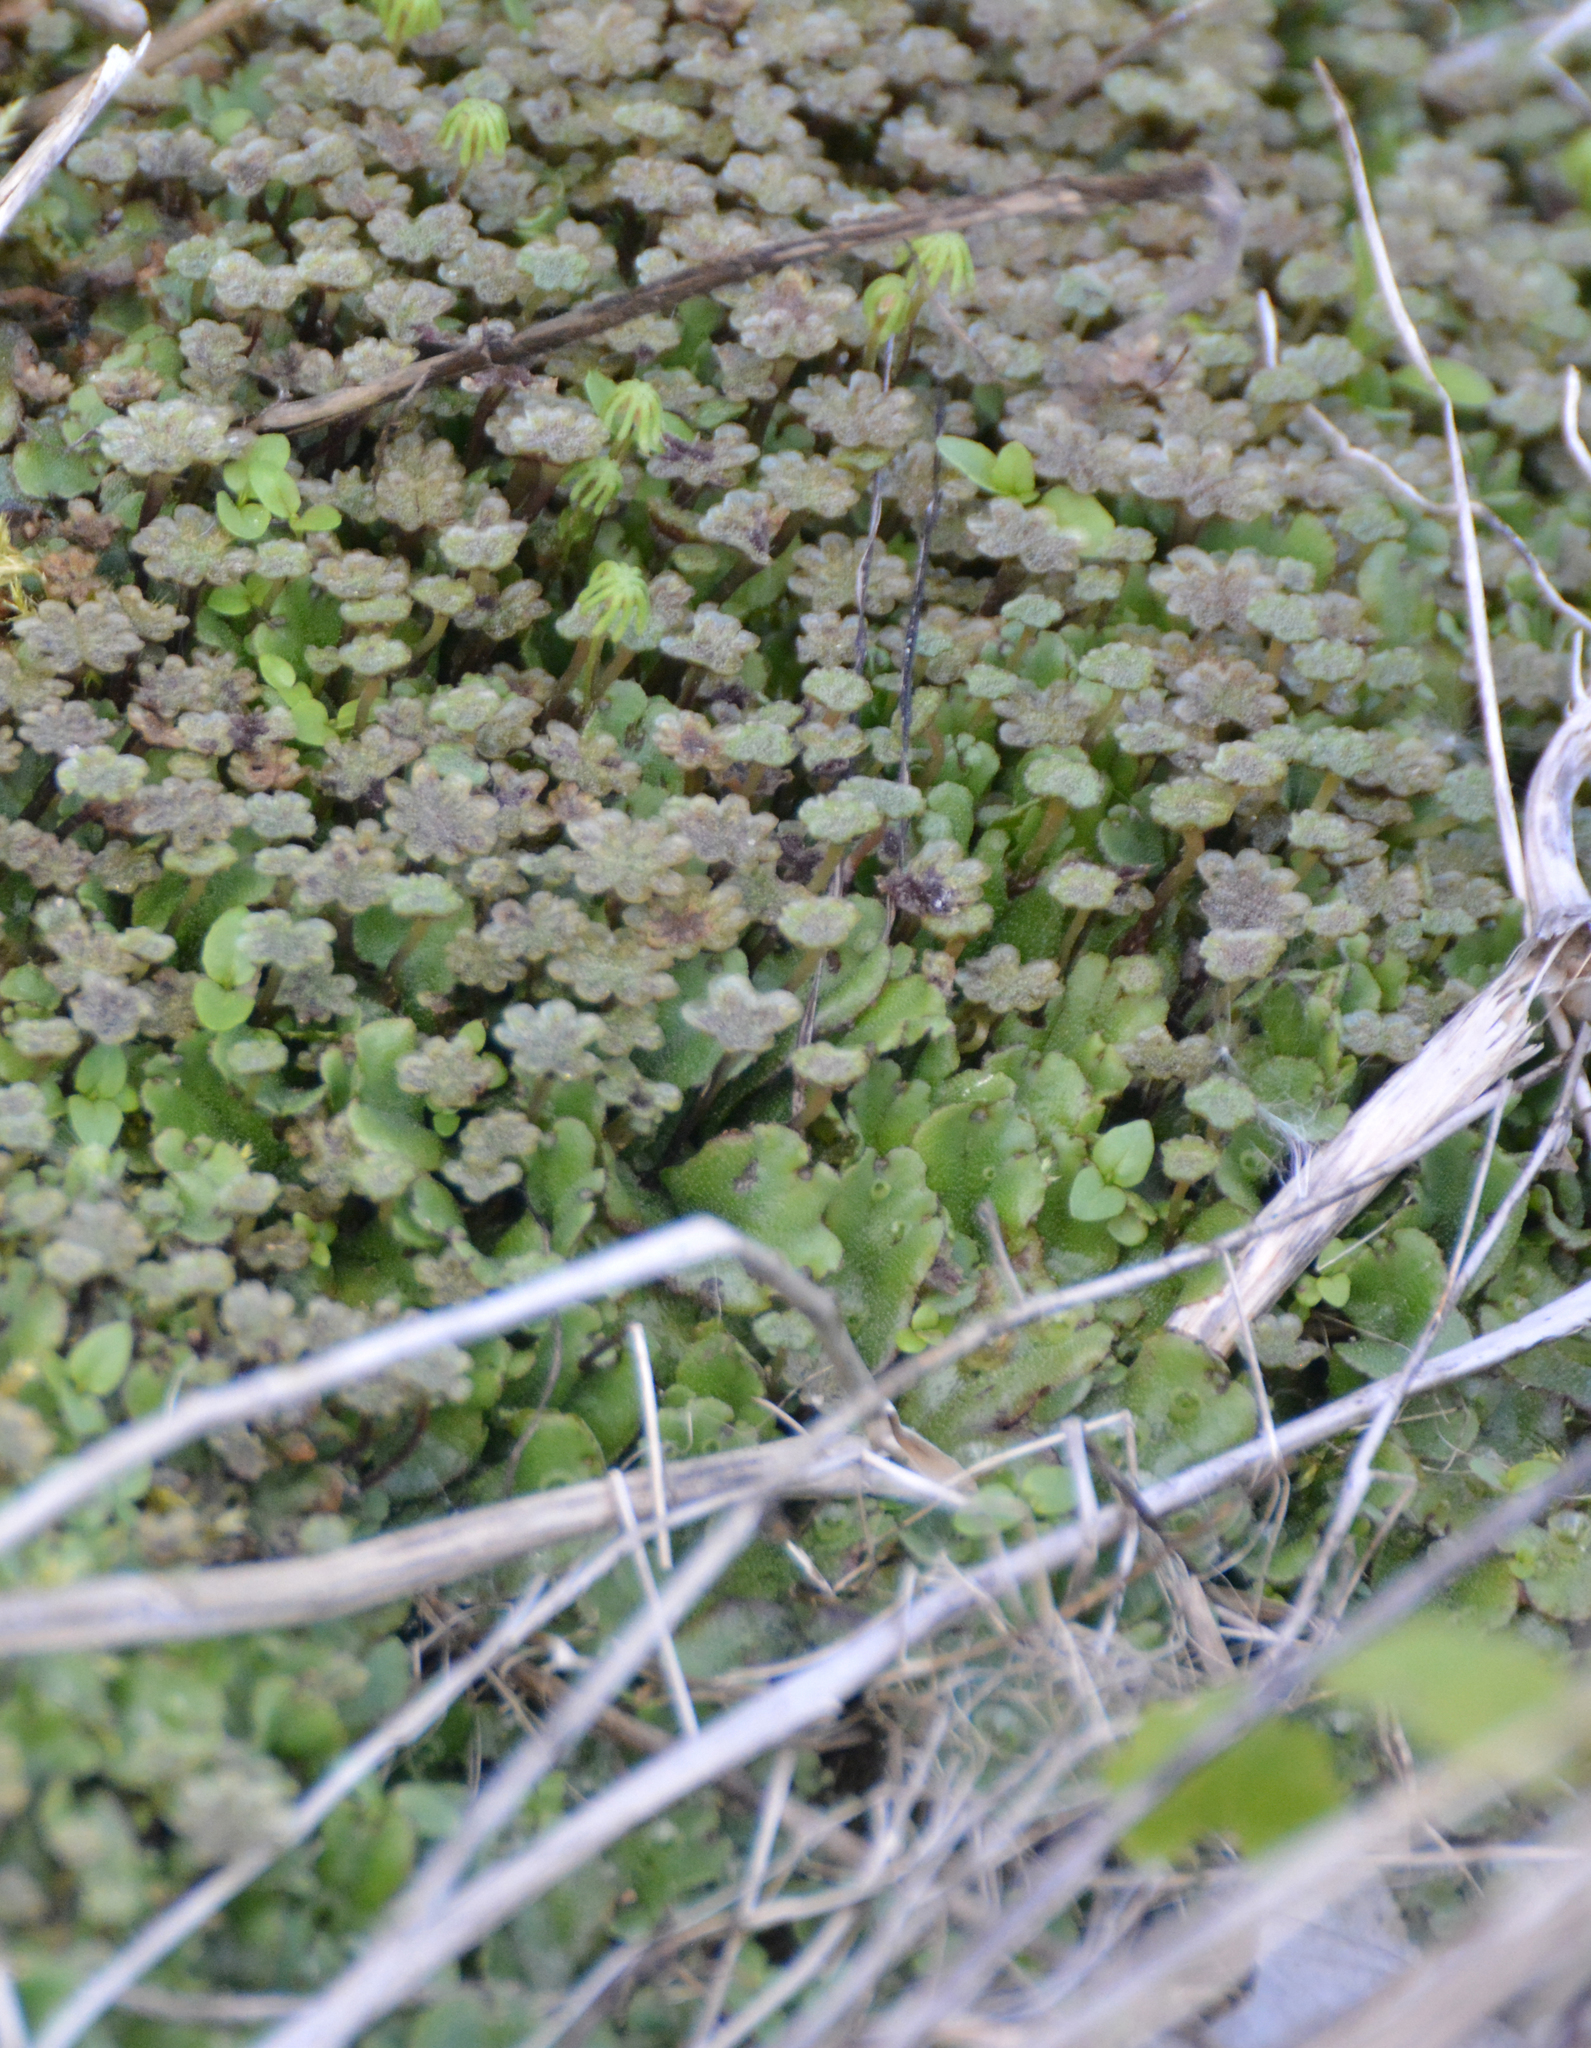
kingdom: Plantae
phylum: Marchantiophyta
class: Marchantiopsida
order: Marchantiales
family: Marchantiaceae
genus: Marchantia
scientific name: Marchantia polymorpha
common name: Common liverwort
